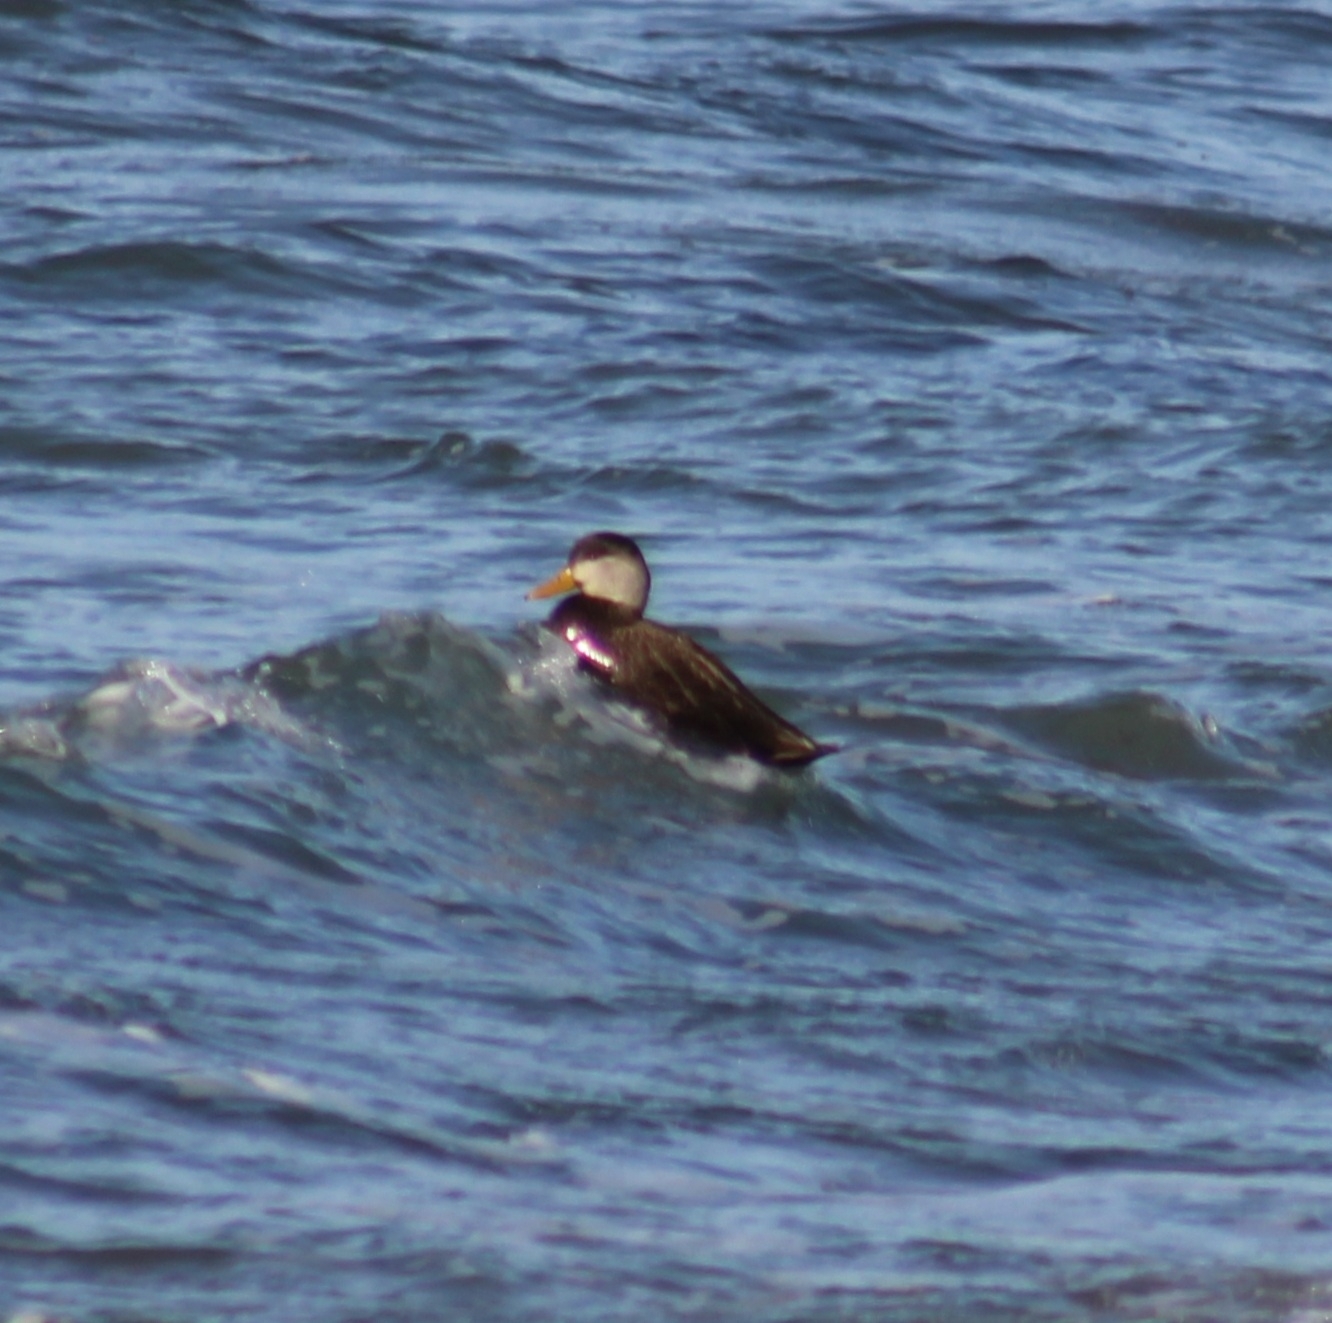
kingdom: Animalia
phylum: Chordata
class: Aves
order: Anseriformes
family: Anatidae
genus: Anas
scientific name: Anas rubripes
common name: American black duck
